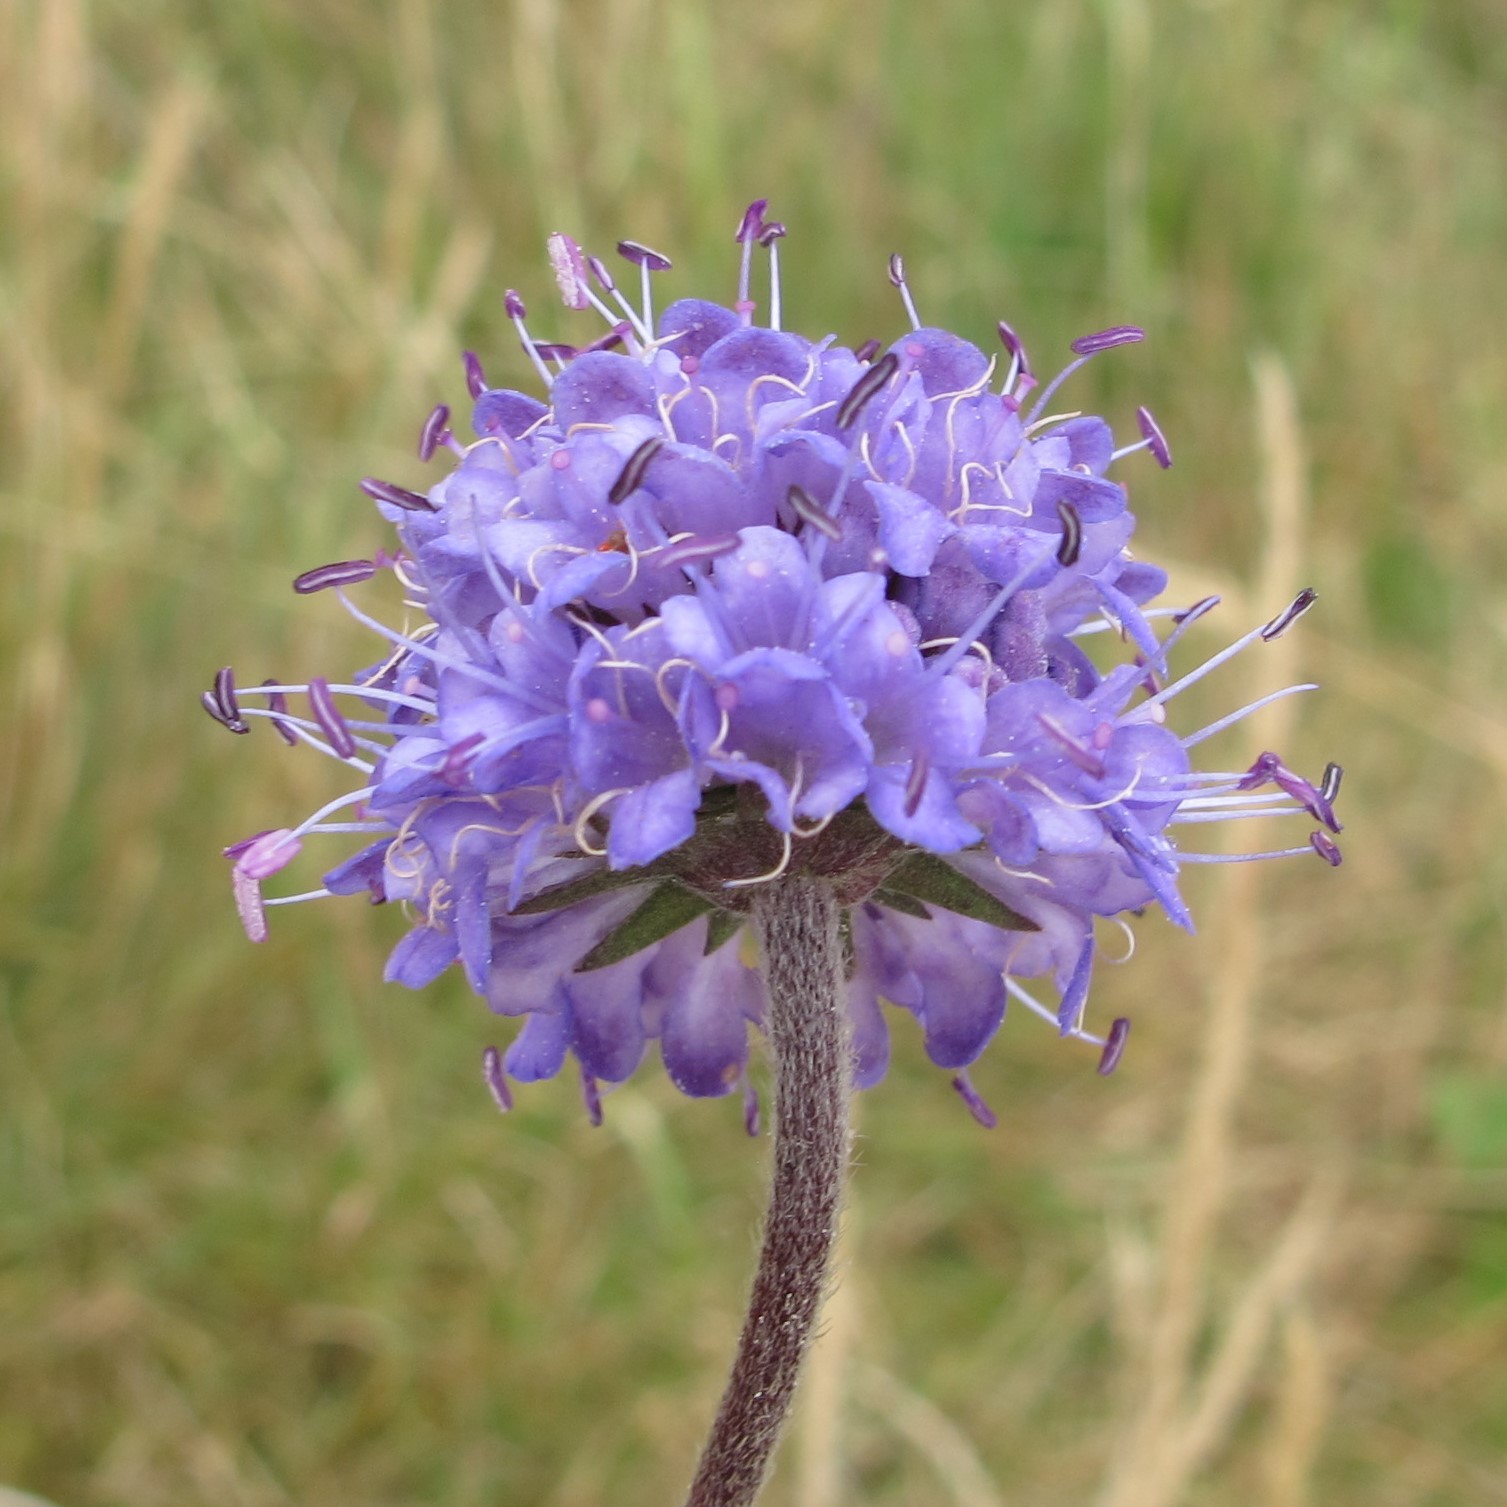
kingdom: Plantae
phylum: Tracheophyta
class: Magnoliopsida
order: Dipsacales
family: Caprifoliaceae
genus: Succisa
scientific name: Succisa pratensis
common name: Devil's-bit
